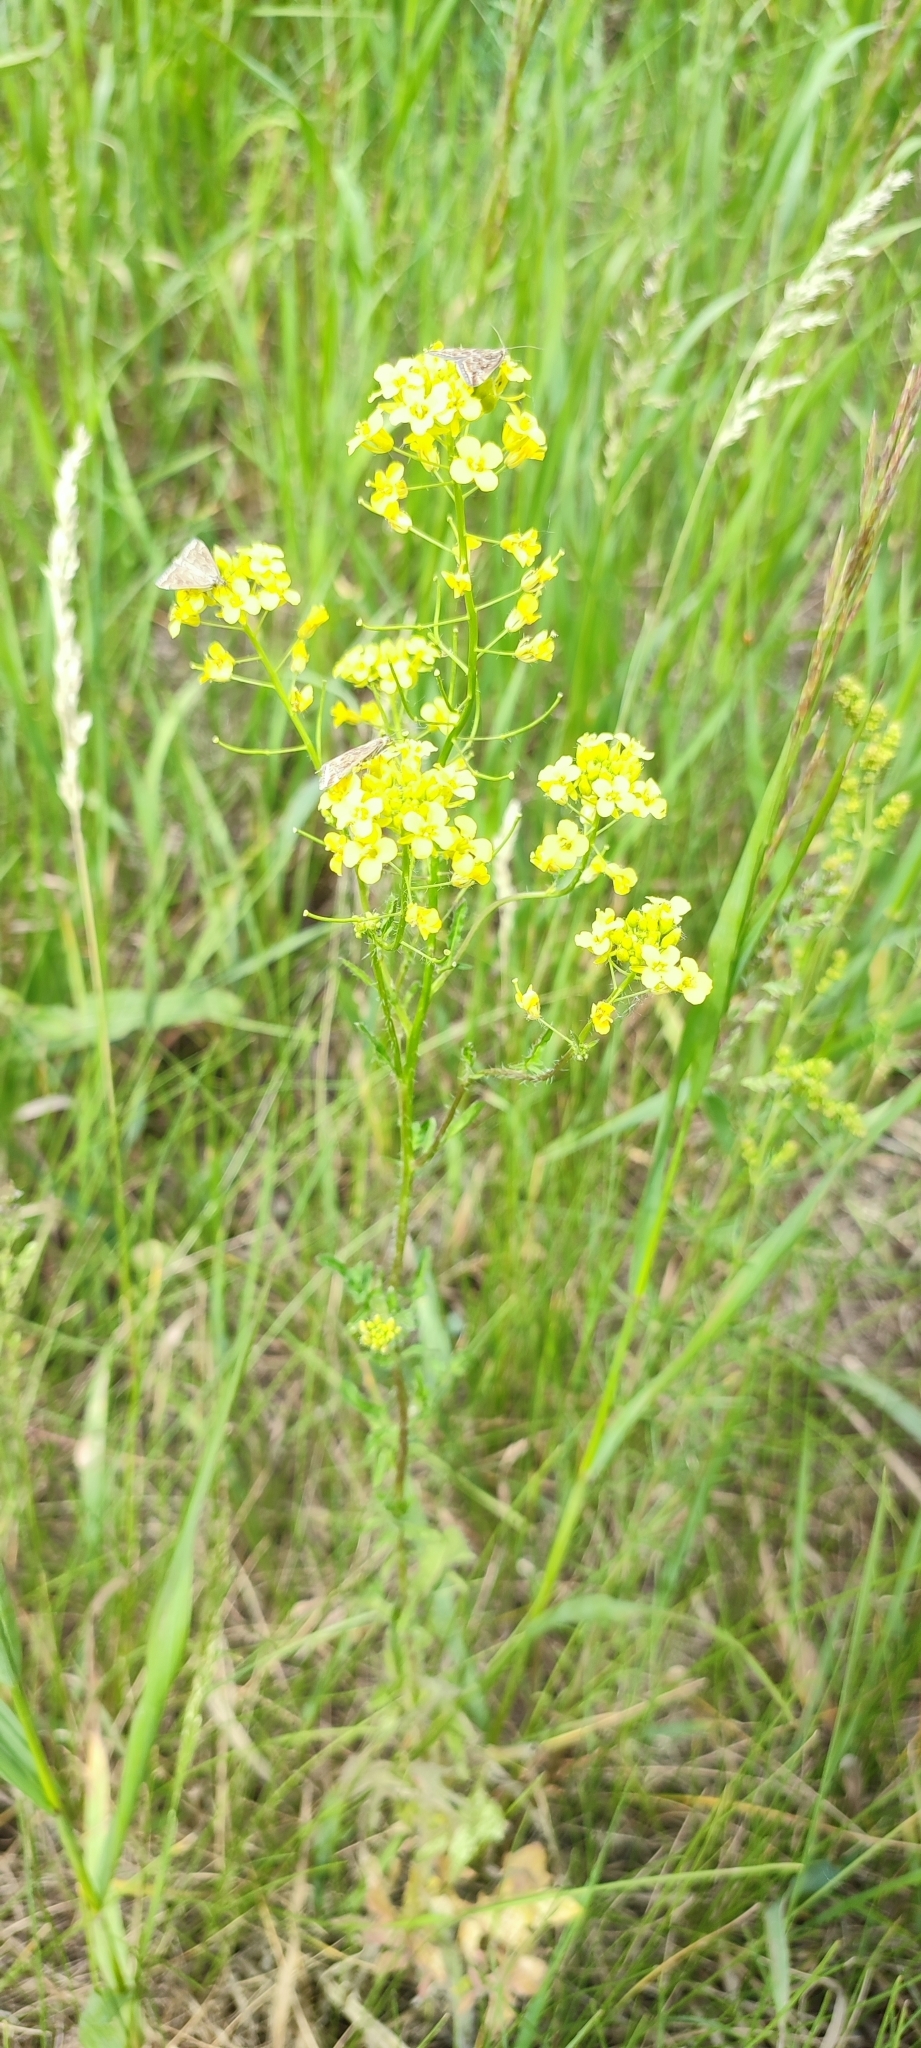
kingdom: Plantae
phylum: Tracheophyta
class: Magnoliopsida
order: Brassicales
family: Brassicaceae
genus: Sisymbrium
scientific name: Sisymbrium loeselii
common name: False london-rocket
